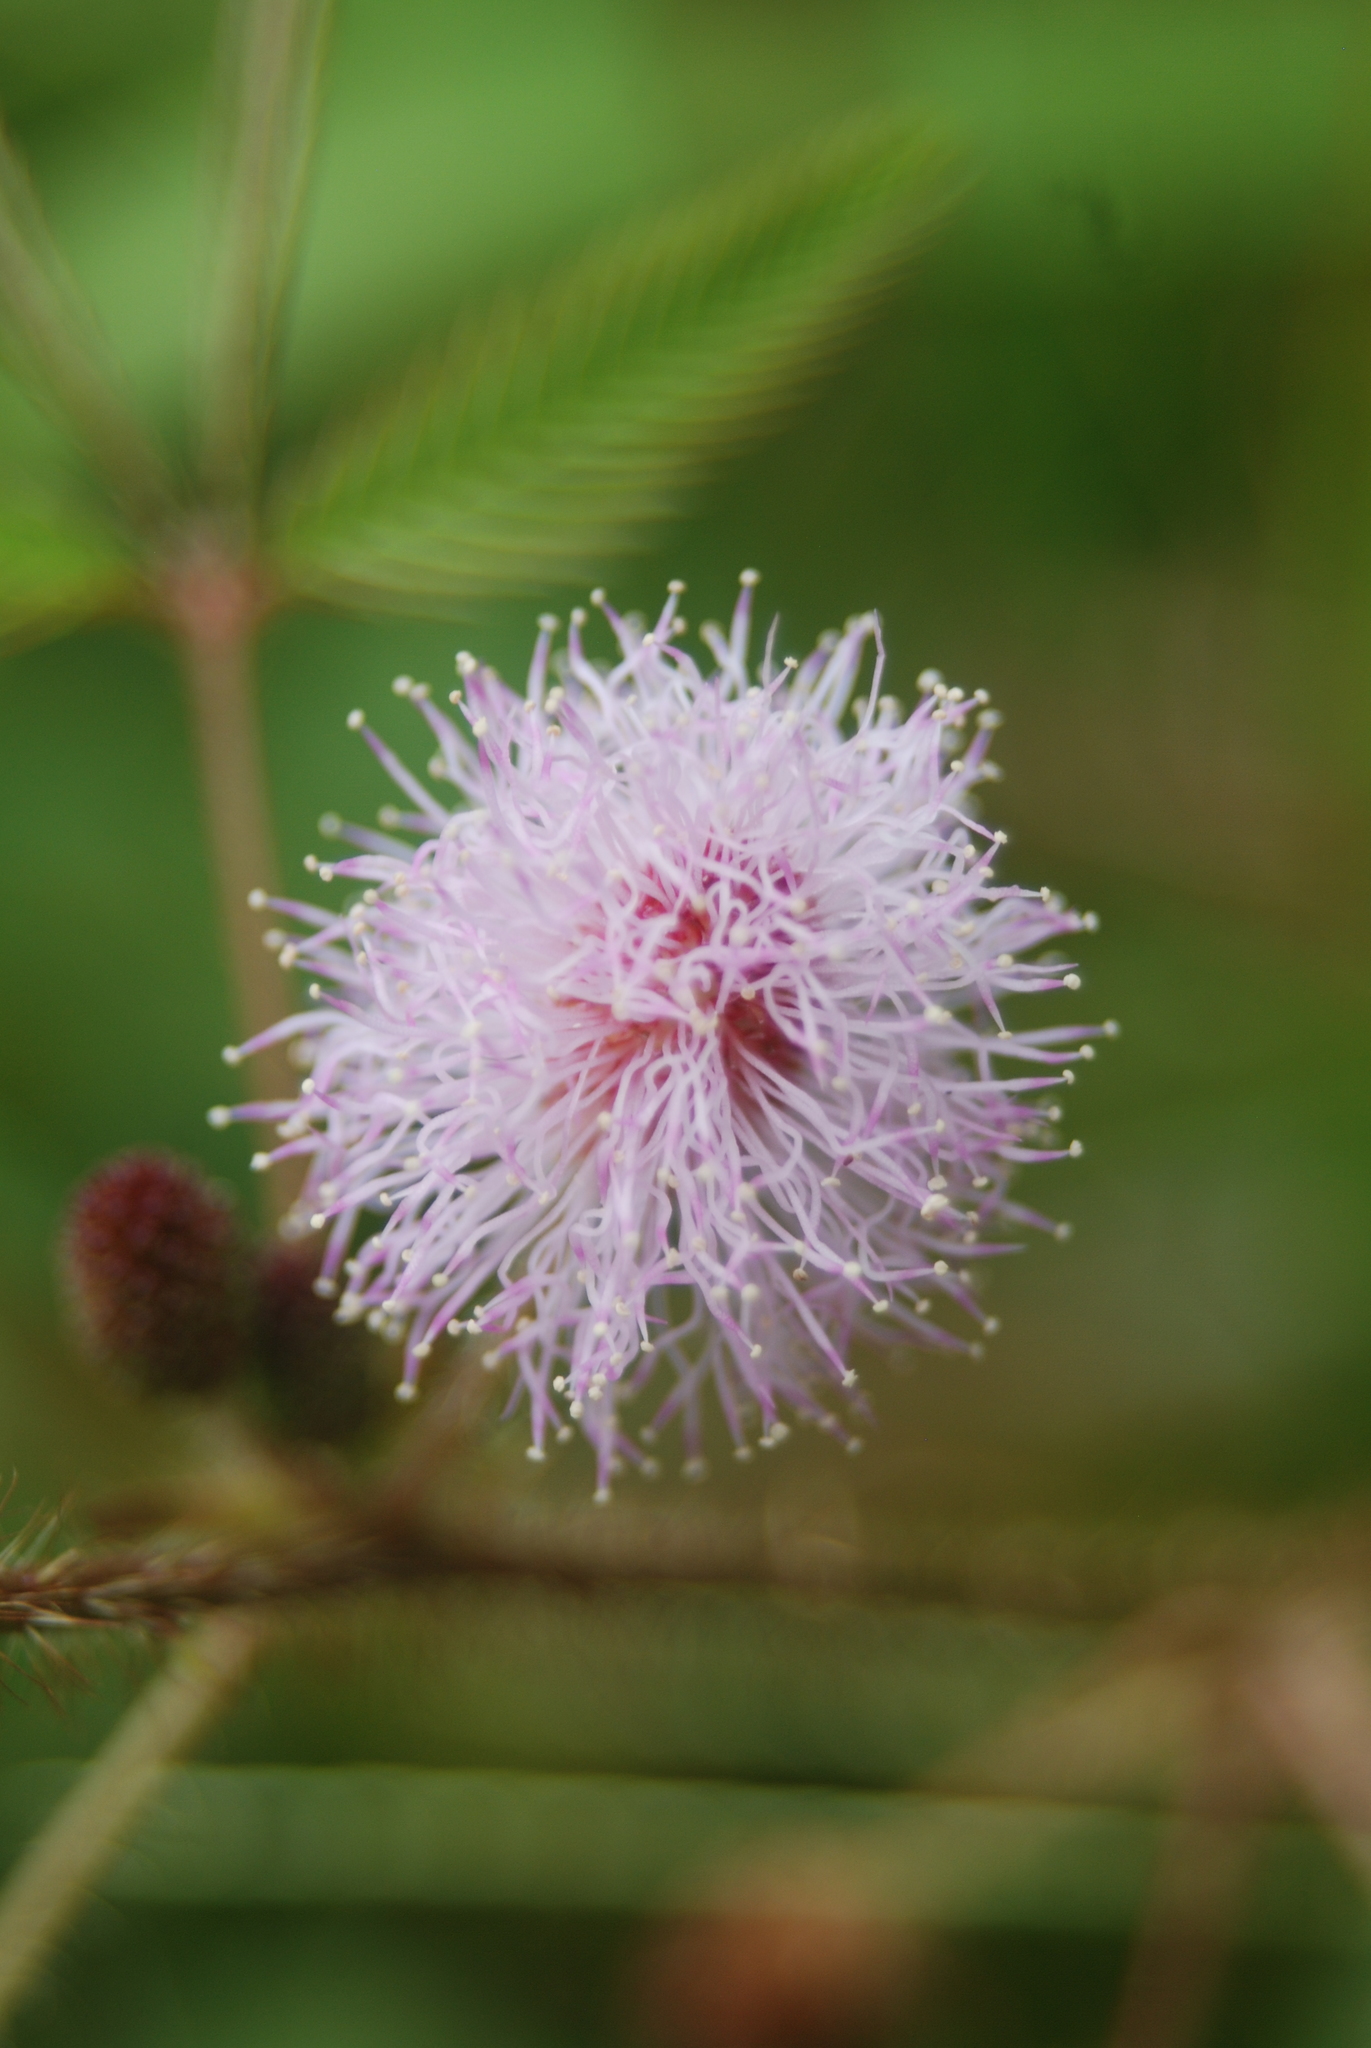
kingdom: Plantae
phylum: Tracheophyta
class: Magnoliopsida
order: Fabales
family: Fabaceae
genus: Mimosa
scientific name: Mimosa pudica
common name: Sensitive plant
